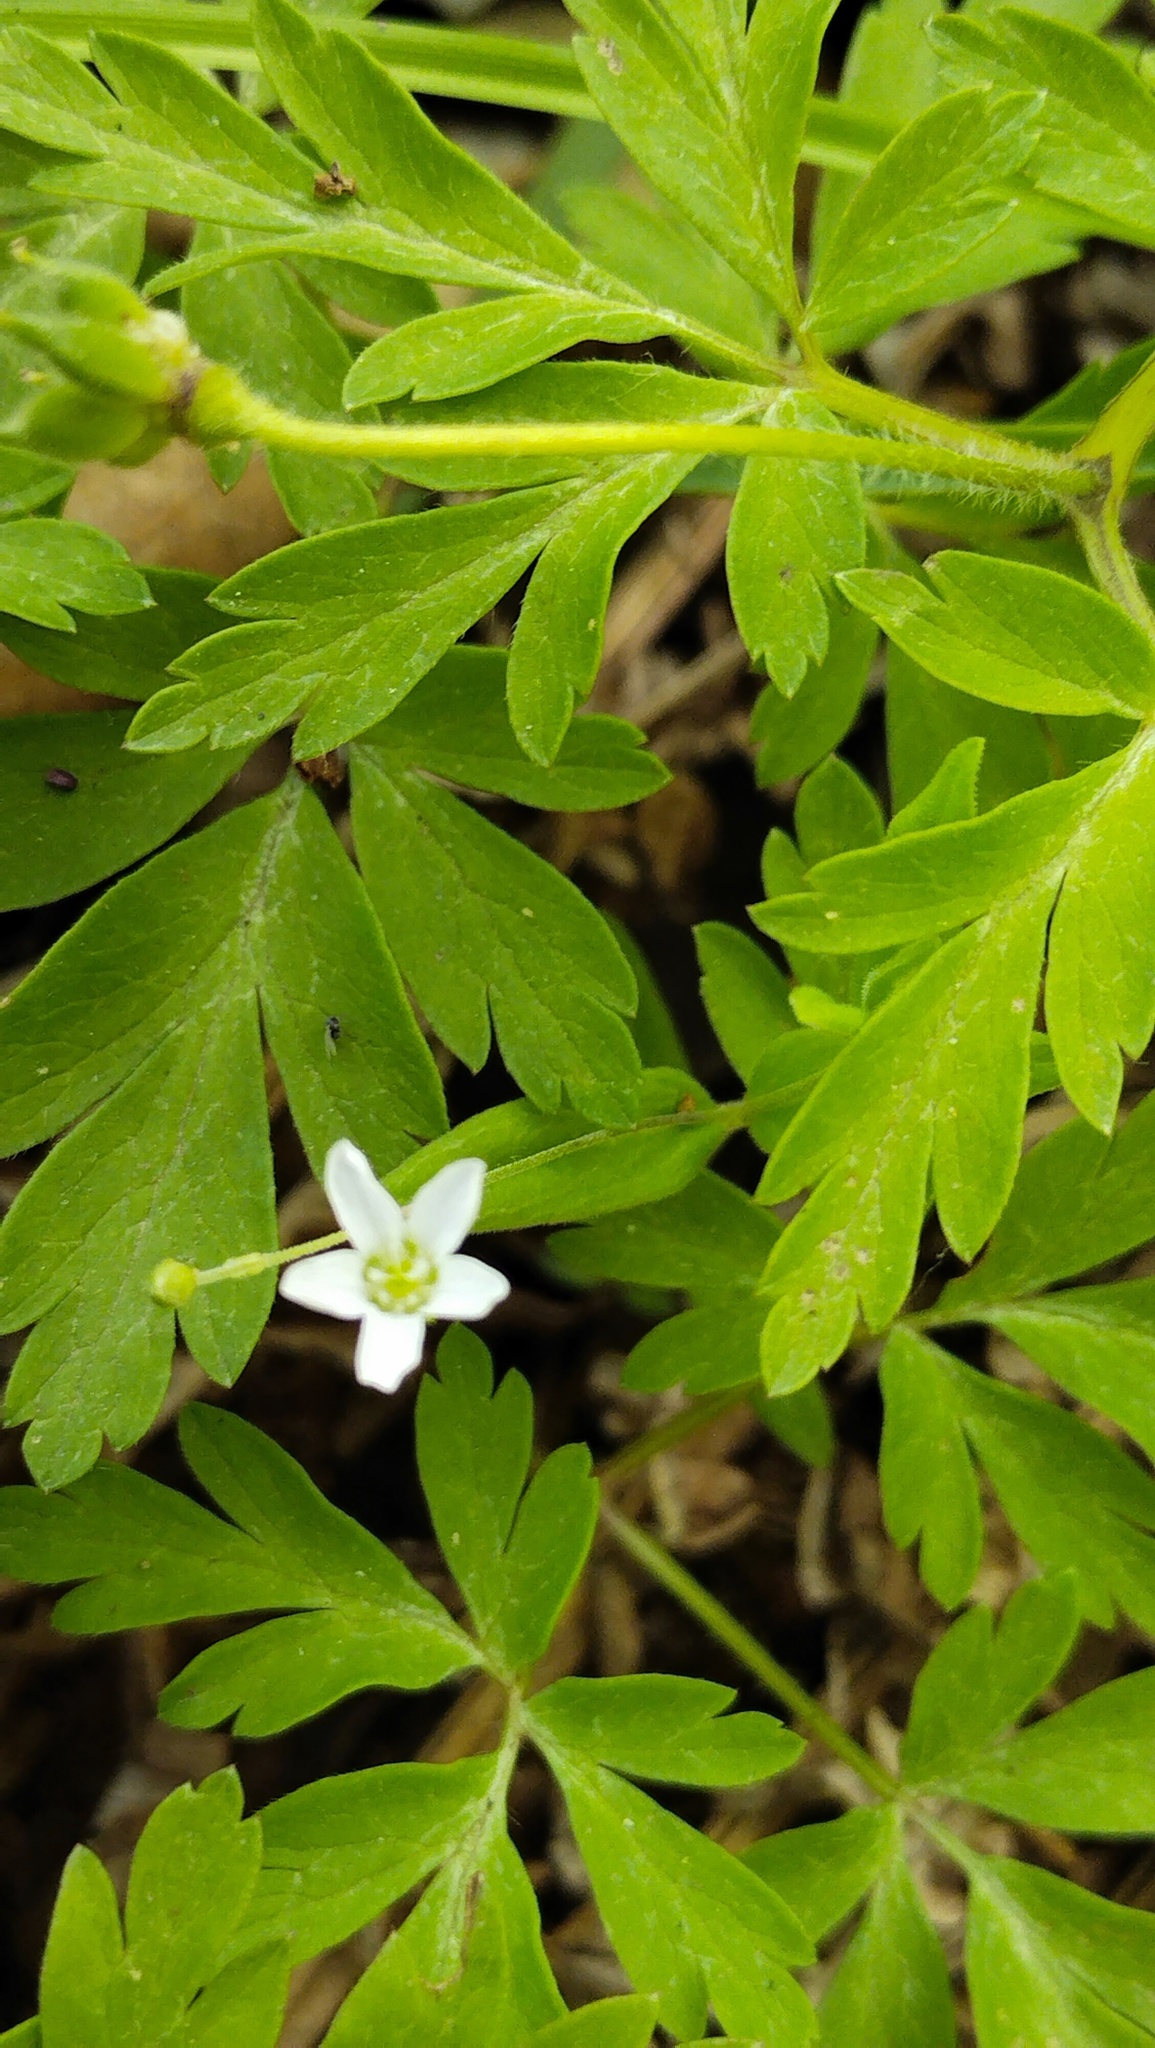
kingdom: Plantae
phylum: Tracheophyta
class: Magnoliopsida
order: Ranunculales
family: Ranunculaceae
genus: Anemone
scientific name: Anemone amurensis
